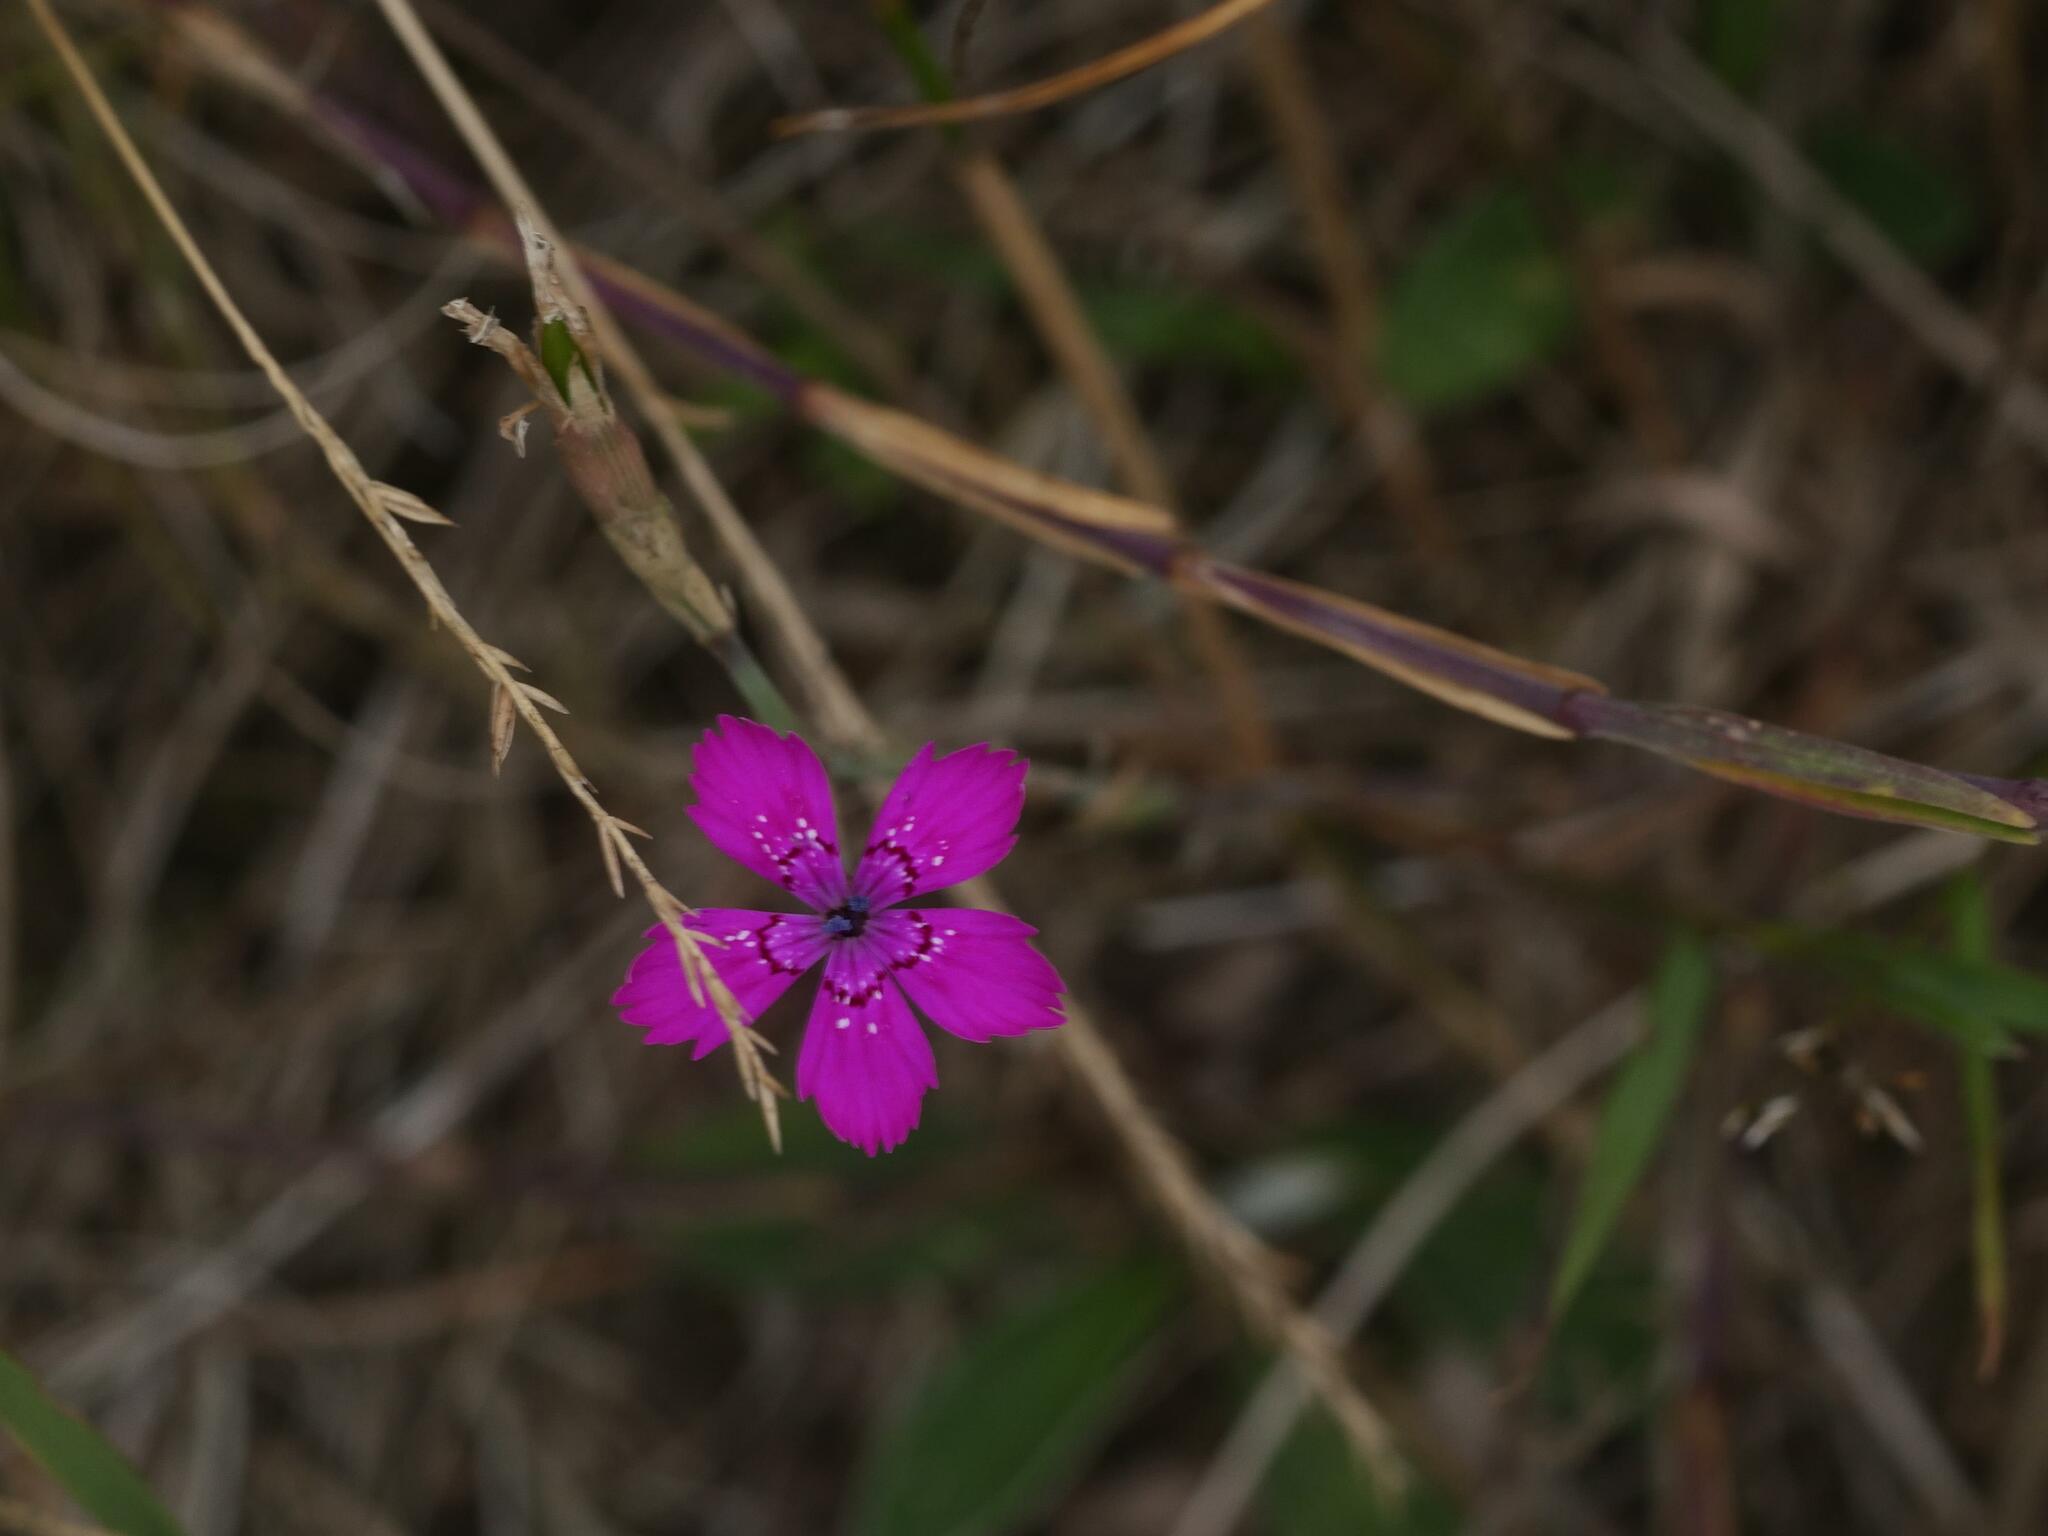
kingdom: Plantae
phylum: Tracheophyta
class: Magnoliopsida
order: Caryophyllales
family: Caryophyllaceae
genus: Dianthus
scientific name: Dianthus deltoides
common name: Maiden pink
